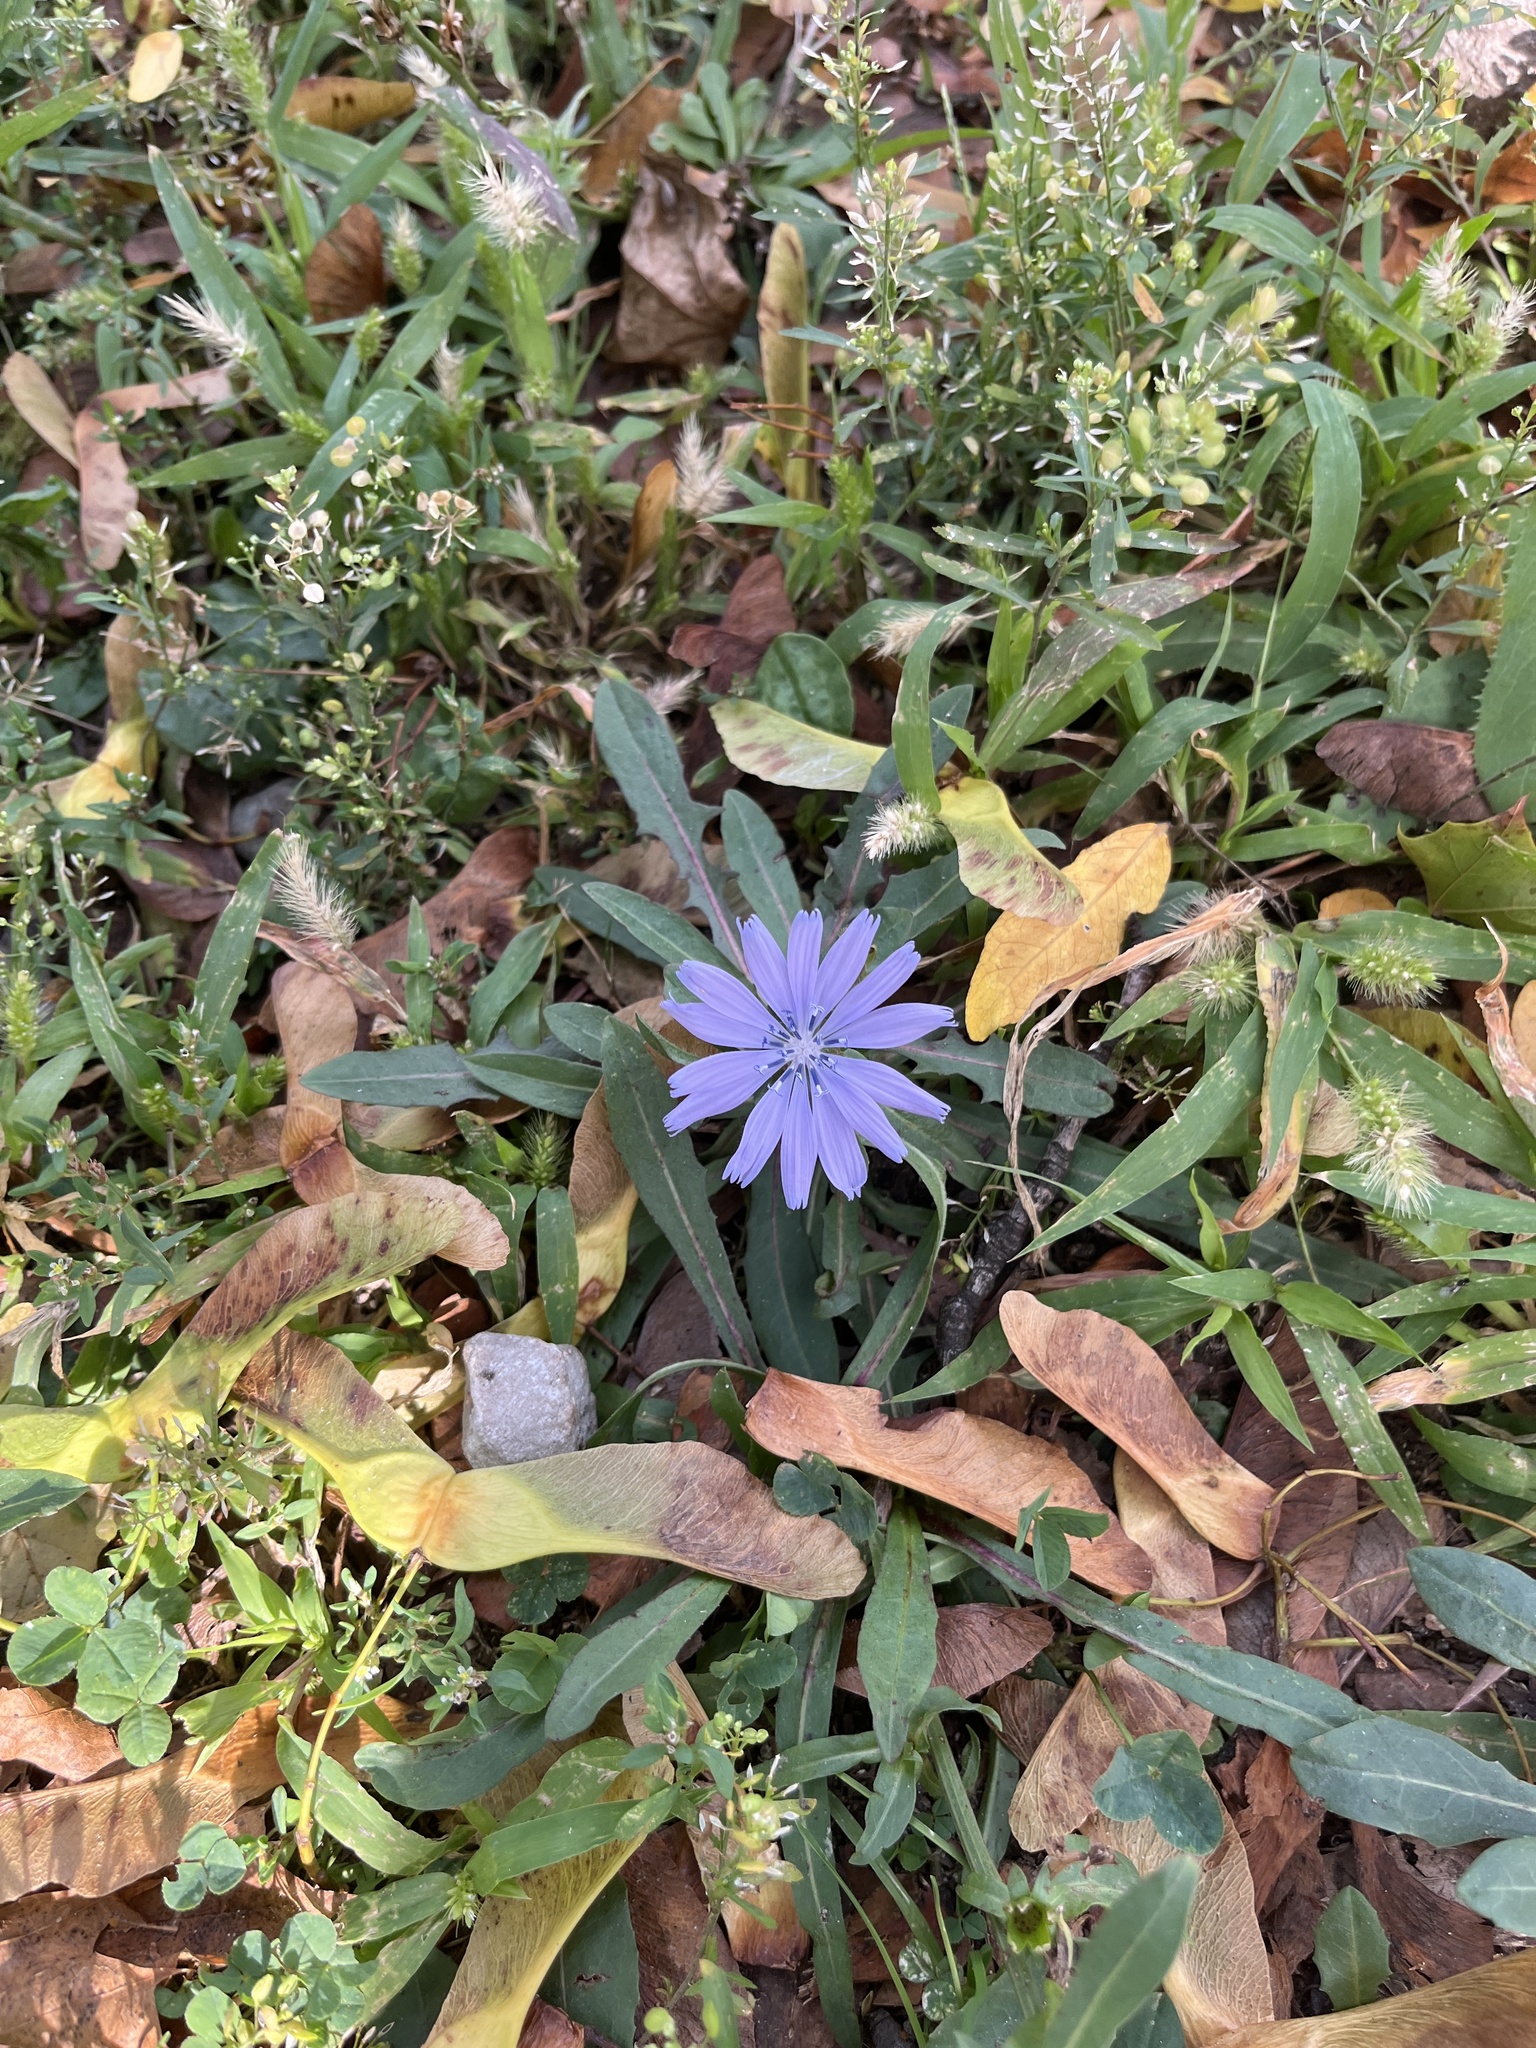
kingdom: Plantae
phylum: Tracheophyta
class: Magnoliopsida
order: Asterales
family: Asteraceae
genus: Cichorium
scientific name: Cichorium intybus
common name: Chicory
